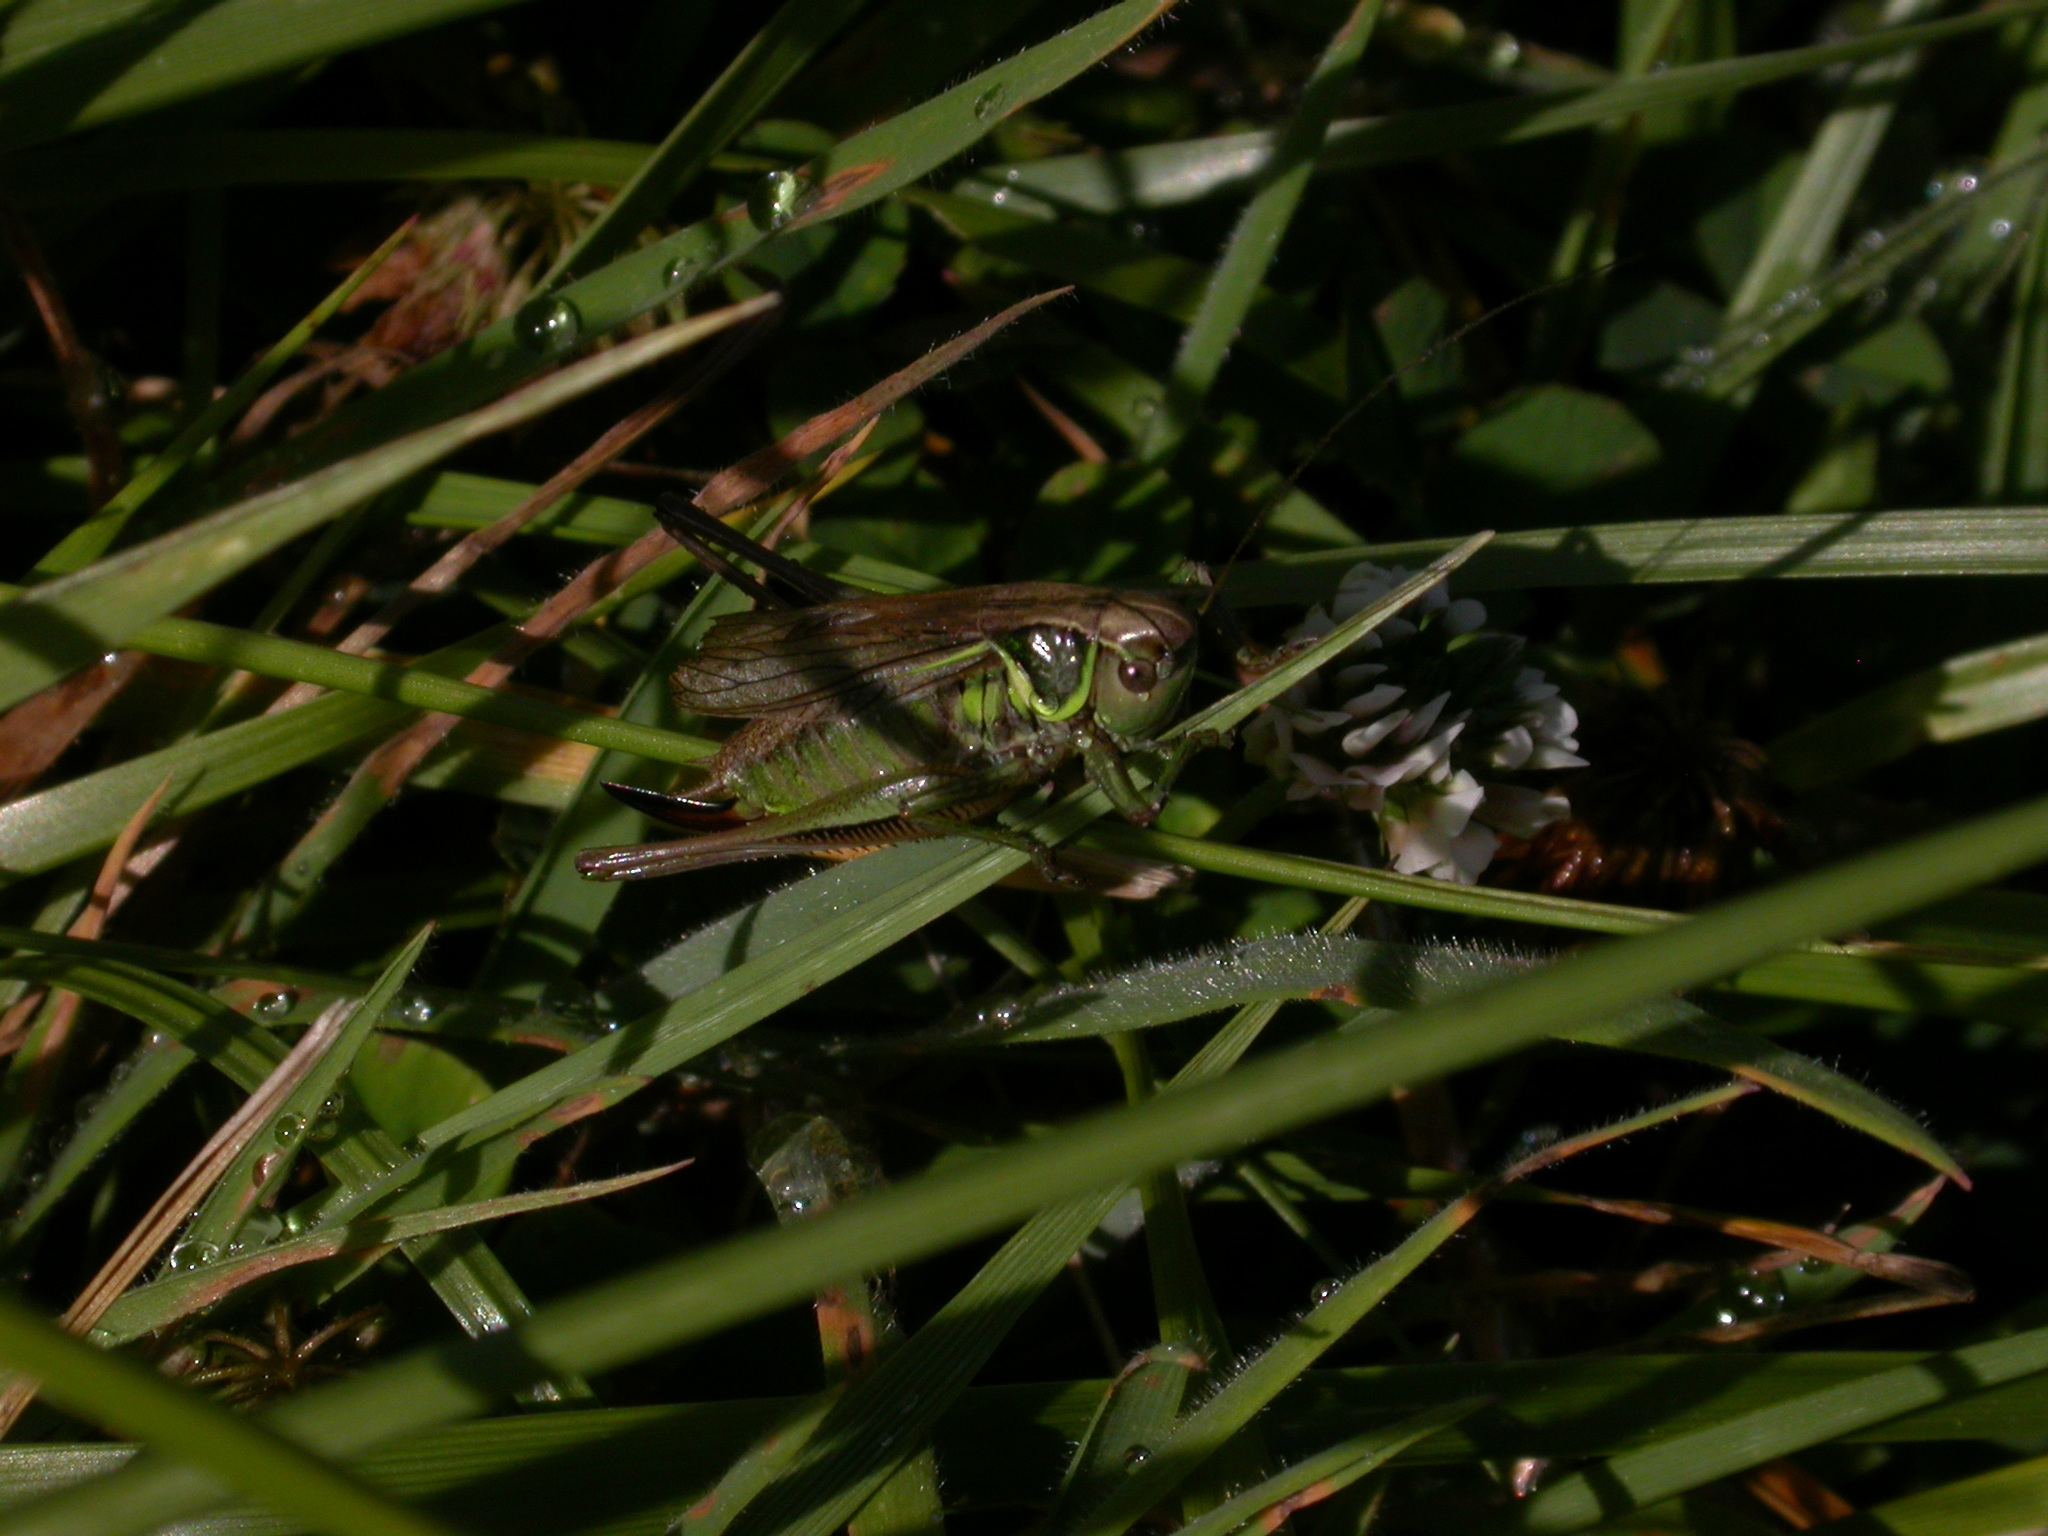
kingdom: Animalia
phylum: Arthropoda
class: Insecta
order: Orthoptera
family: Tettigoniidae
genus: Roeseliana
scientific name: Roeseliana roeselii
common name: Roesel's bush cricket
